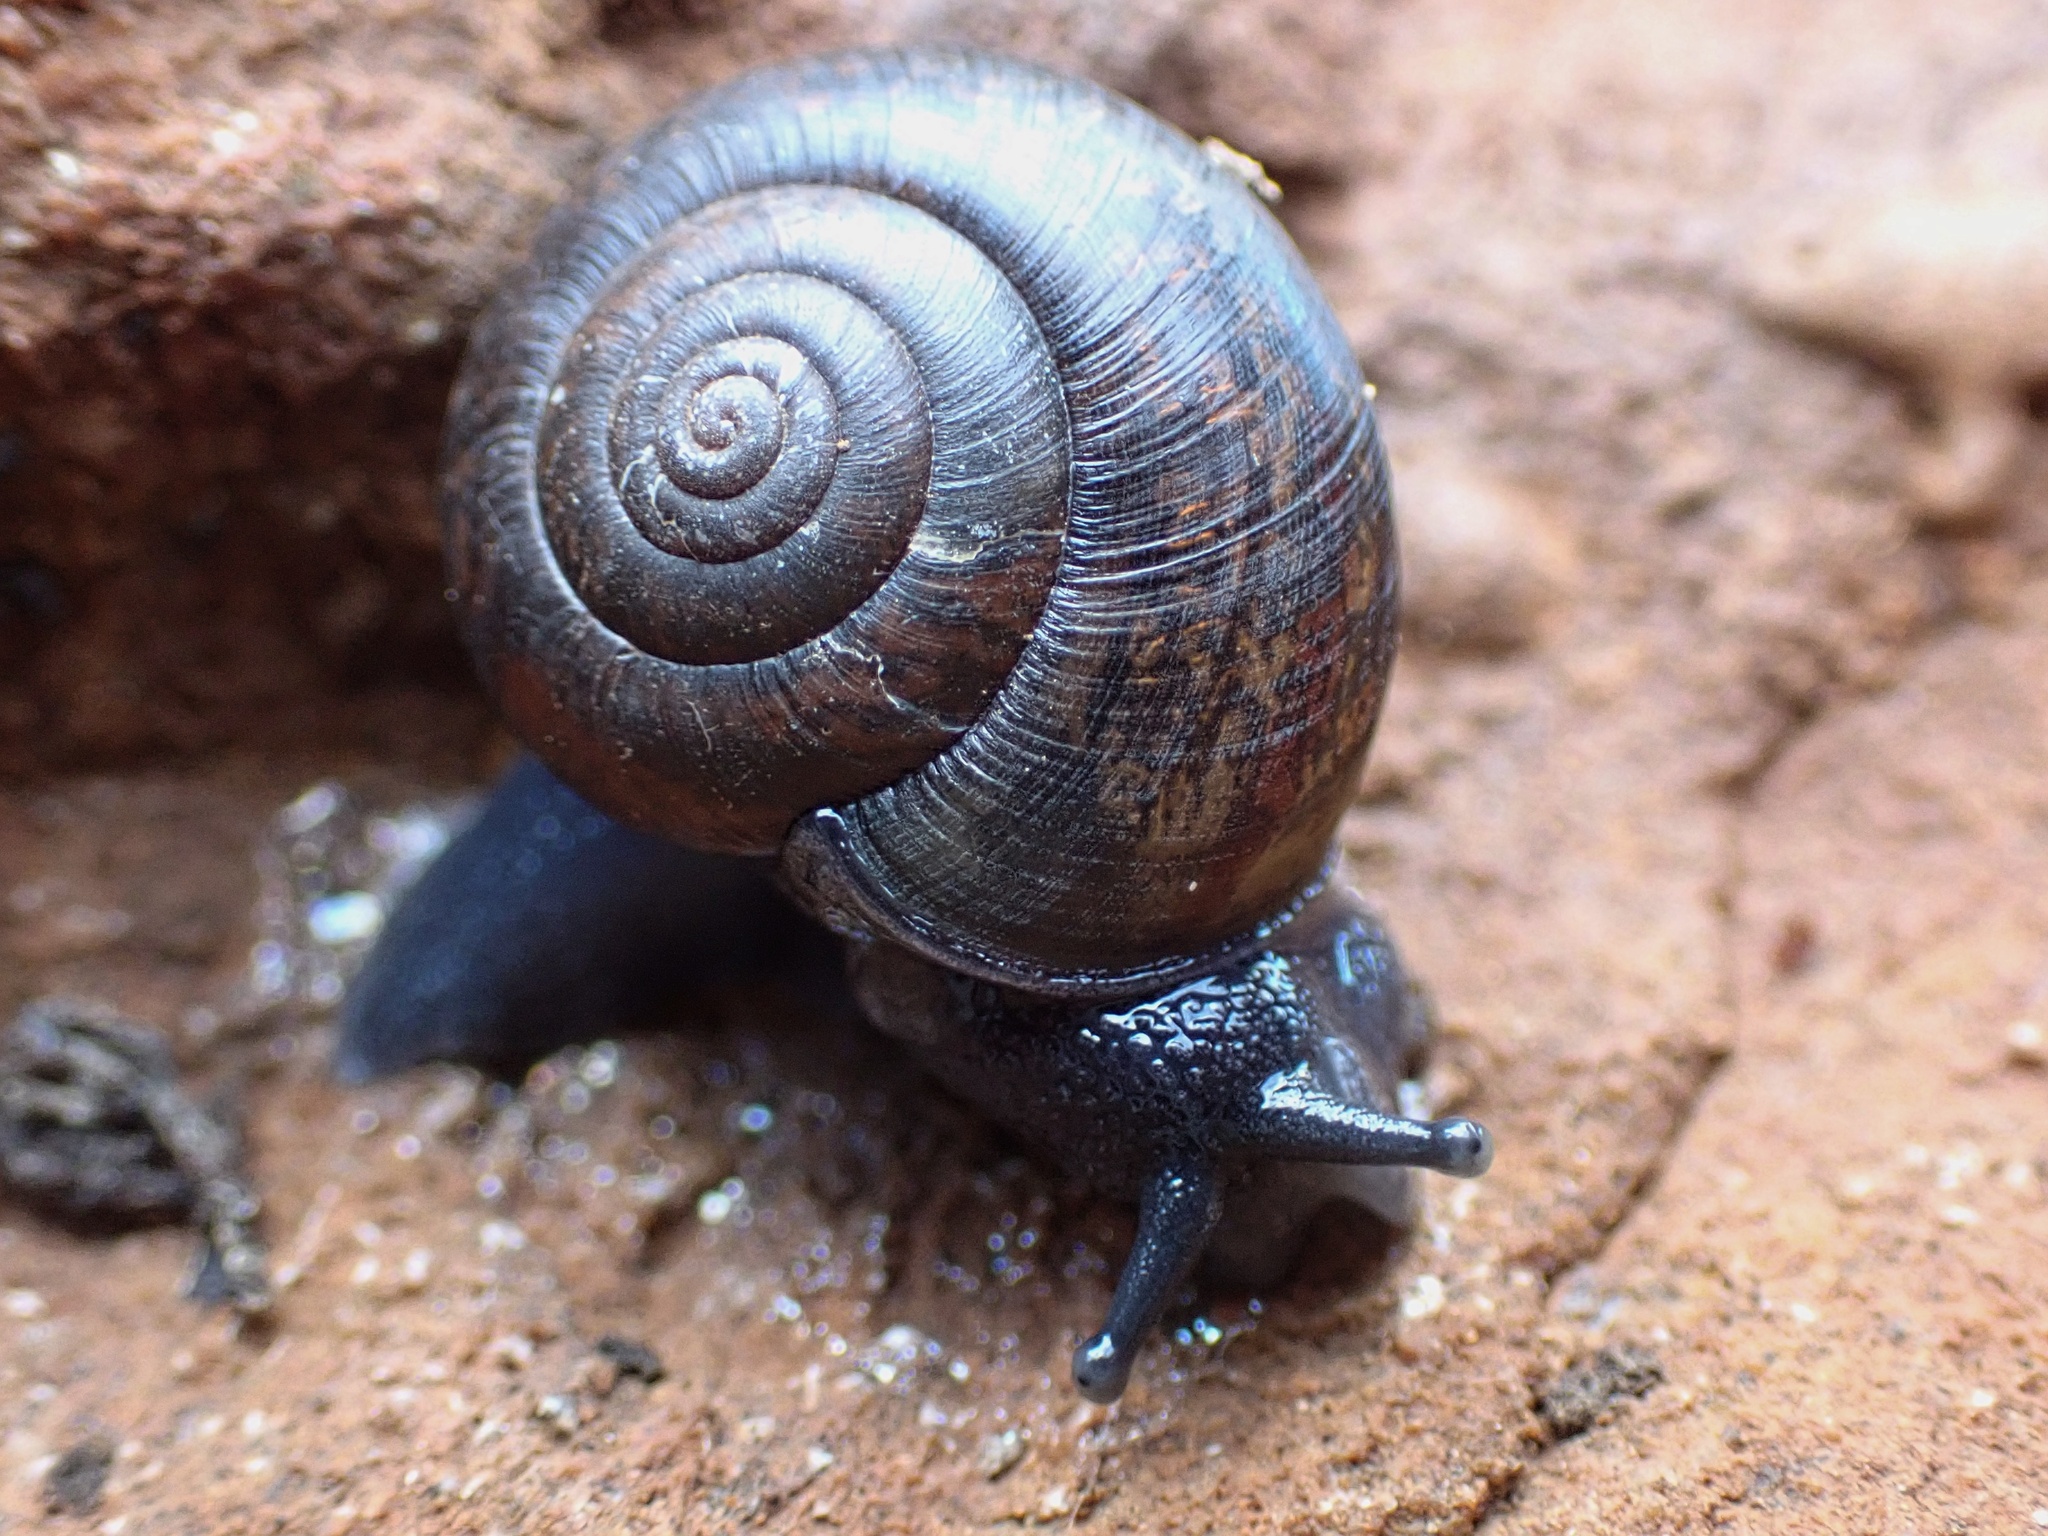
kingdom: Animalia
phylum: Mollusca
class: Gastropoda
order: Stylommatophora
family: Xanthonychidae
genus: Helminthoglypta
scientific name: Helminthoglypta traskii
